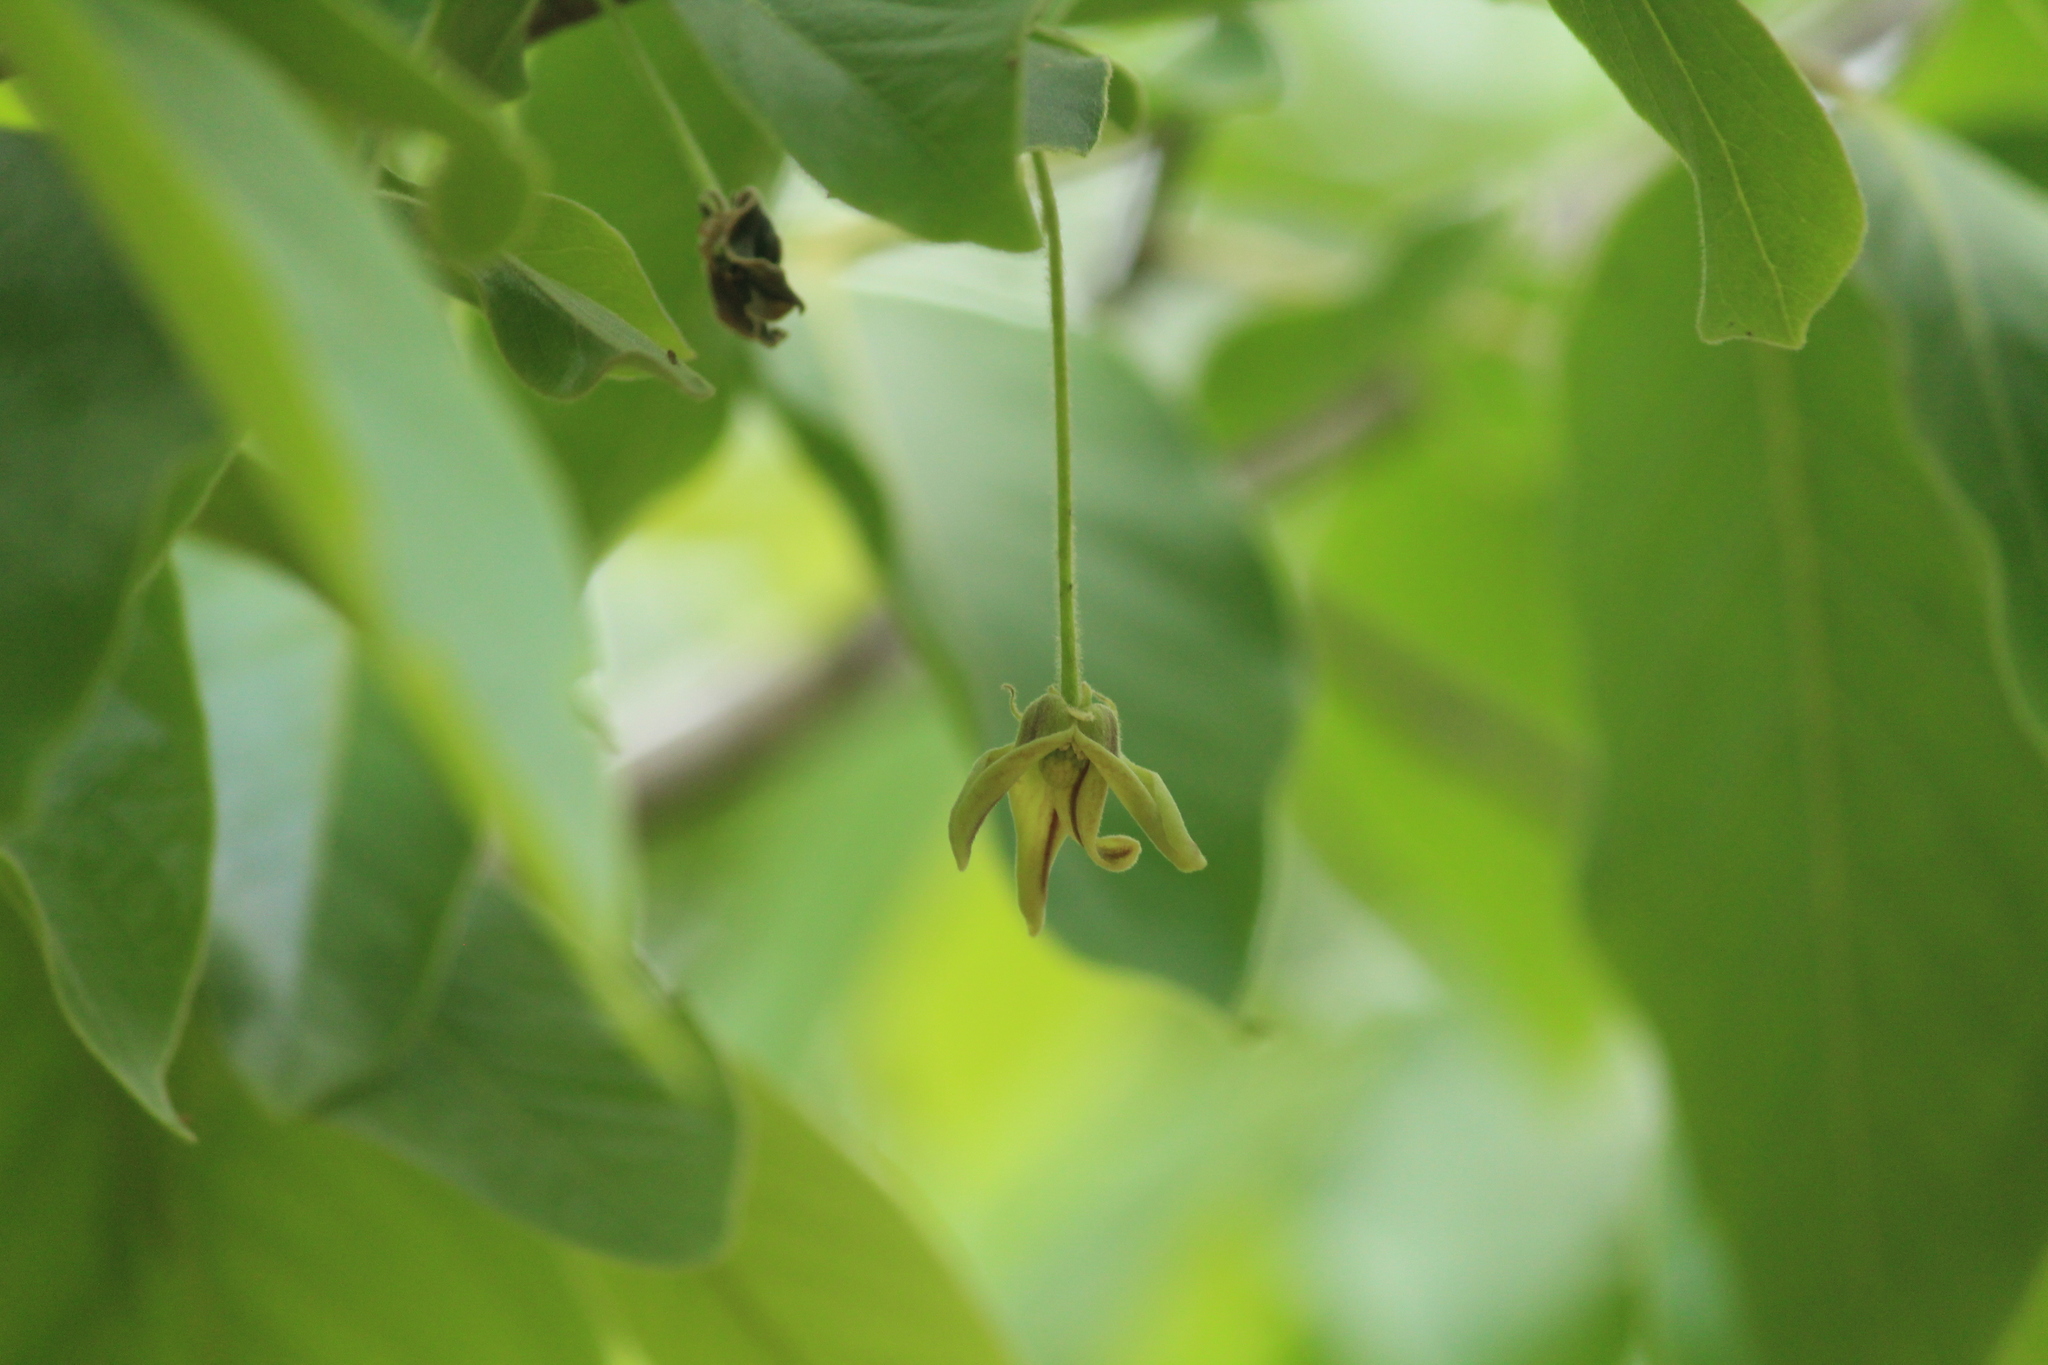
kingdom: Plantae
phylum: Tracheophyta
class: Magnoliopsida
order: Magnoliales
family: Annonaceae
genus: Miliusa
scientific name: Miliusa tomentosa
